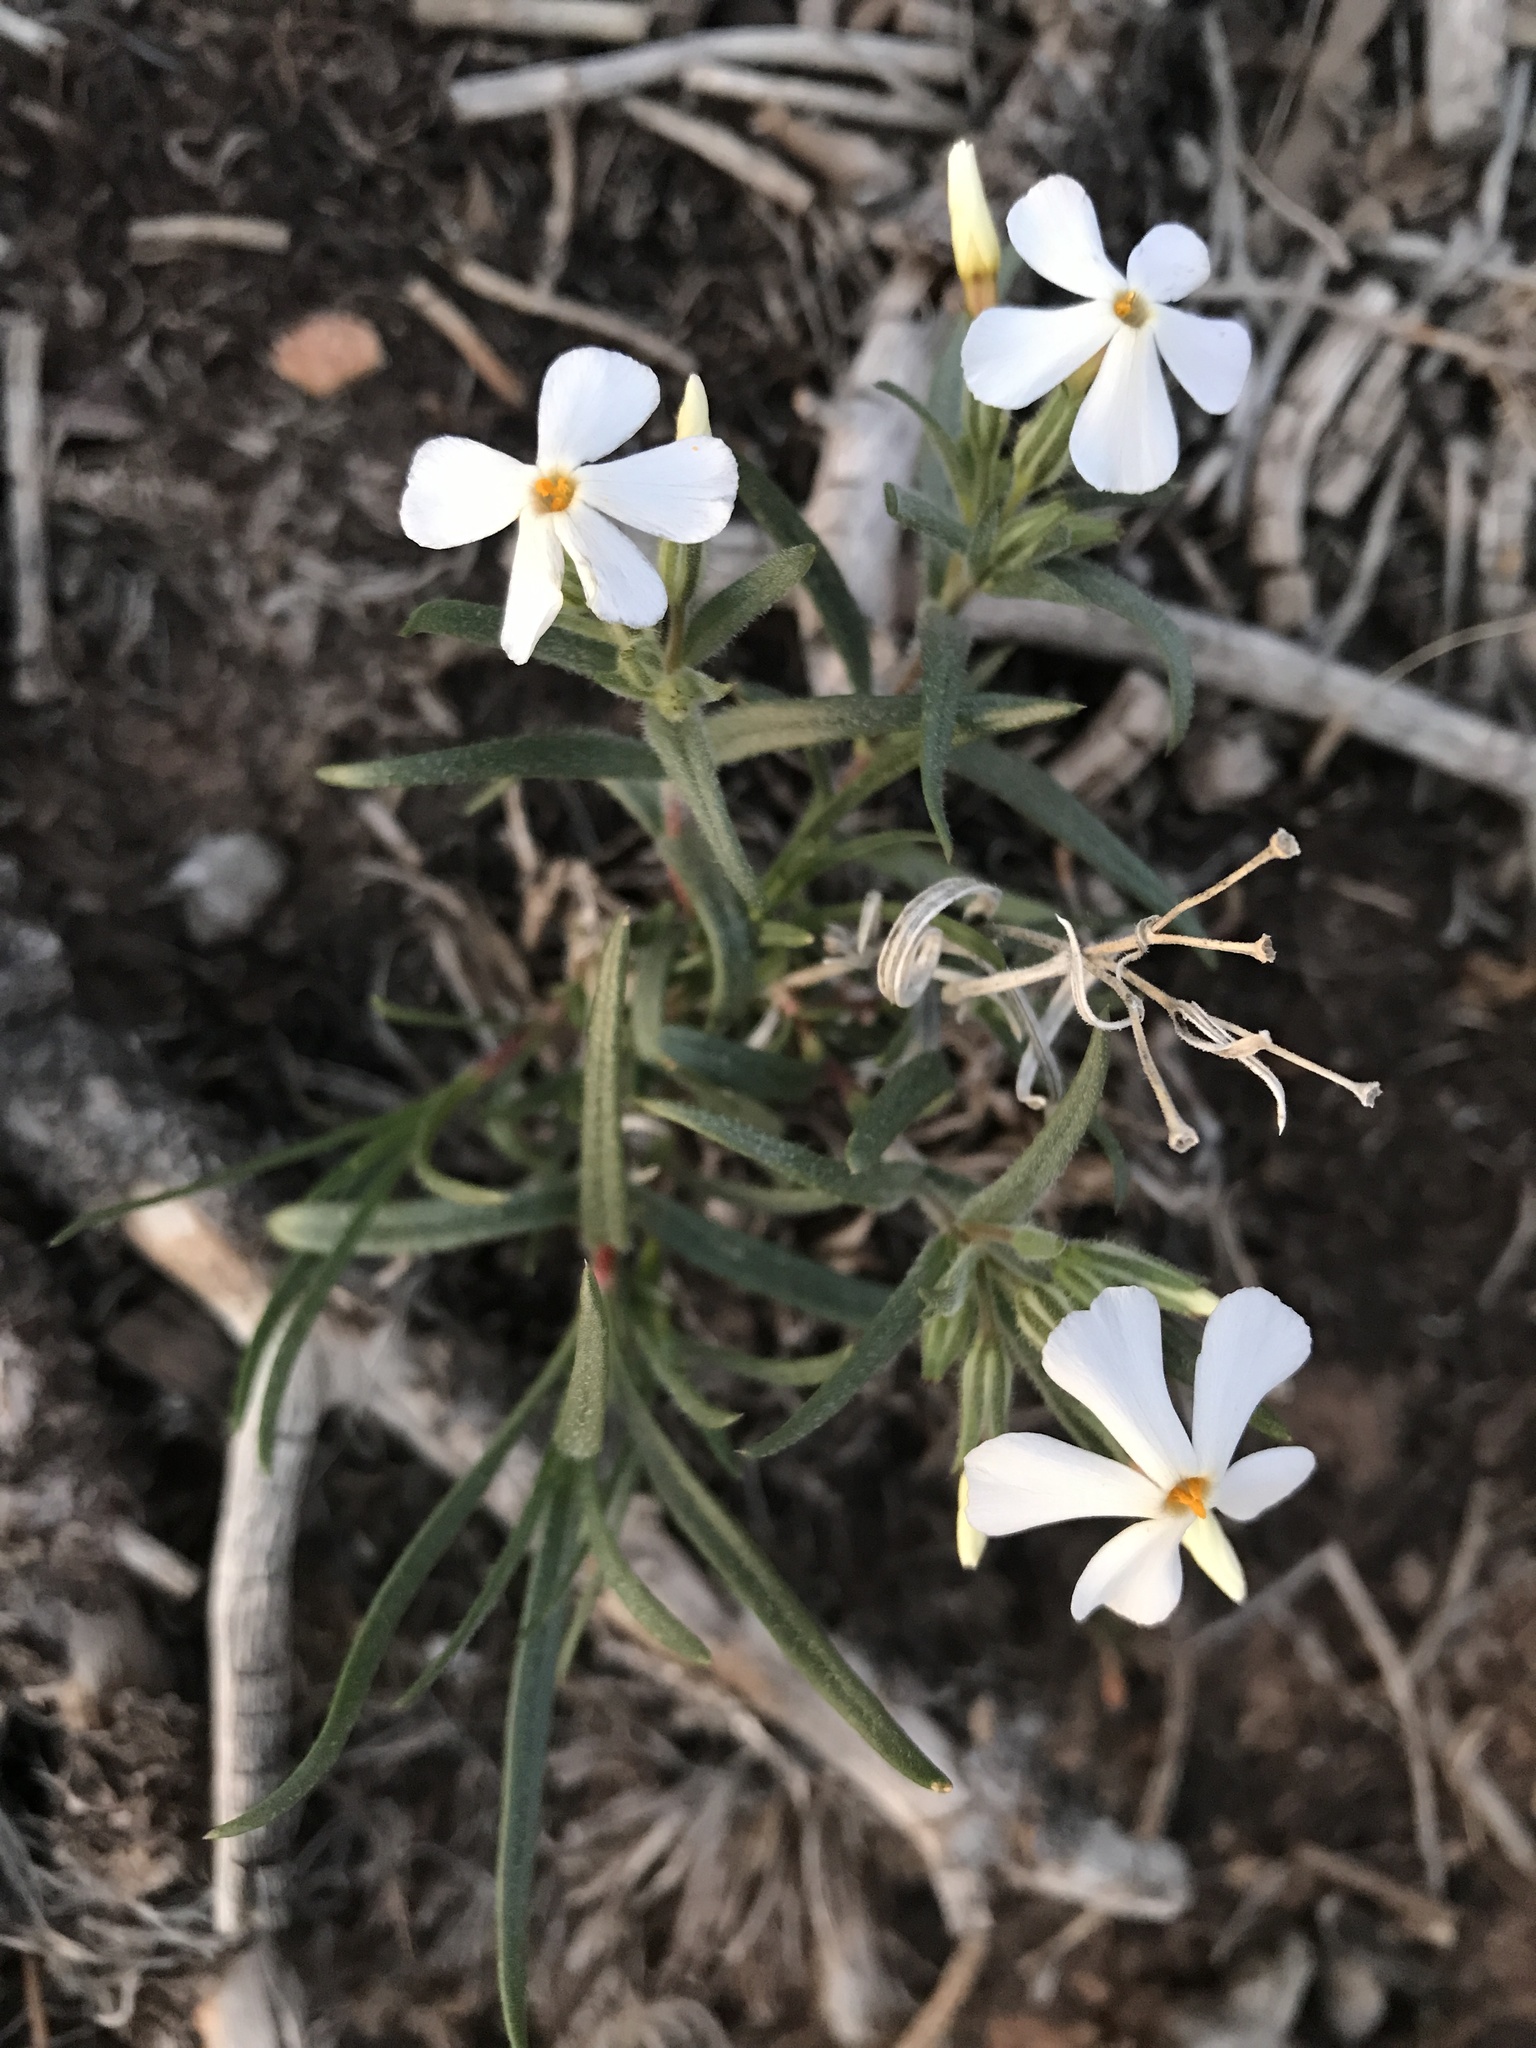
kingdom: Plantae
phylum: Tracheophyta
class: Magnoliopsida
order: Ericales
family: Polemoniaceae
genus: Phlox
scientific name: Phlox longifolia
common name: Longleaf phlox
